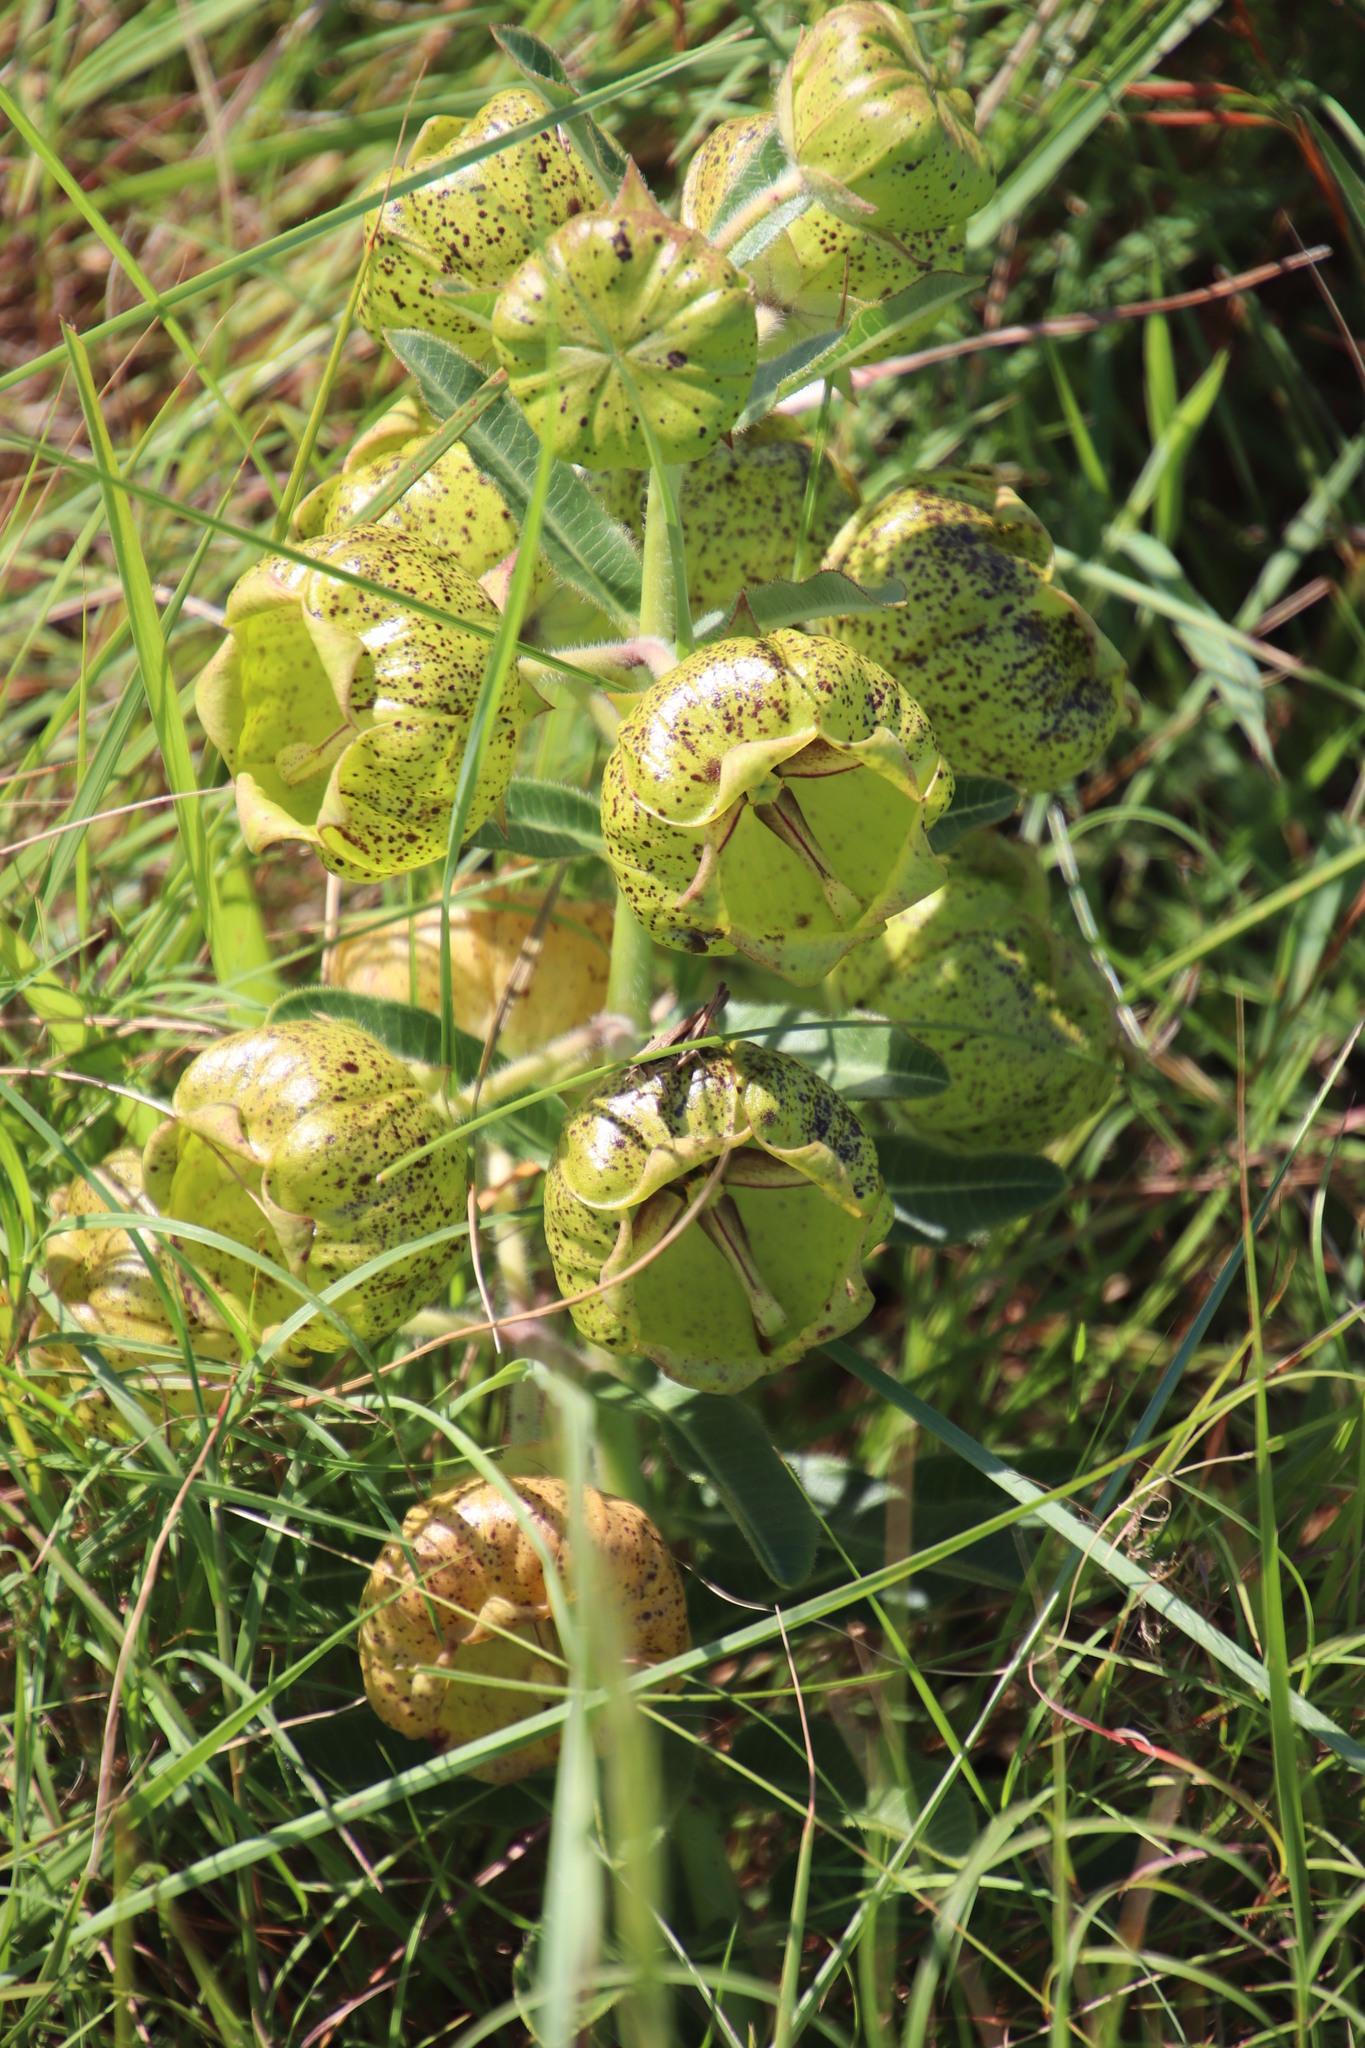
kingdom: Plantae
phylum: Tracheophyta
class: Magnoliopsida
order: Gentianales
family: Apocynaceae
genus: Pachycarpus
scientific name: Pachycarpus grandiflorus
